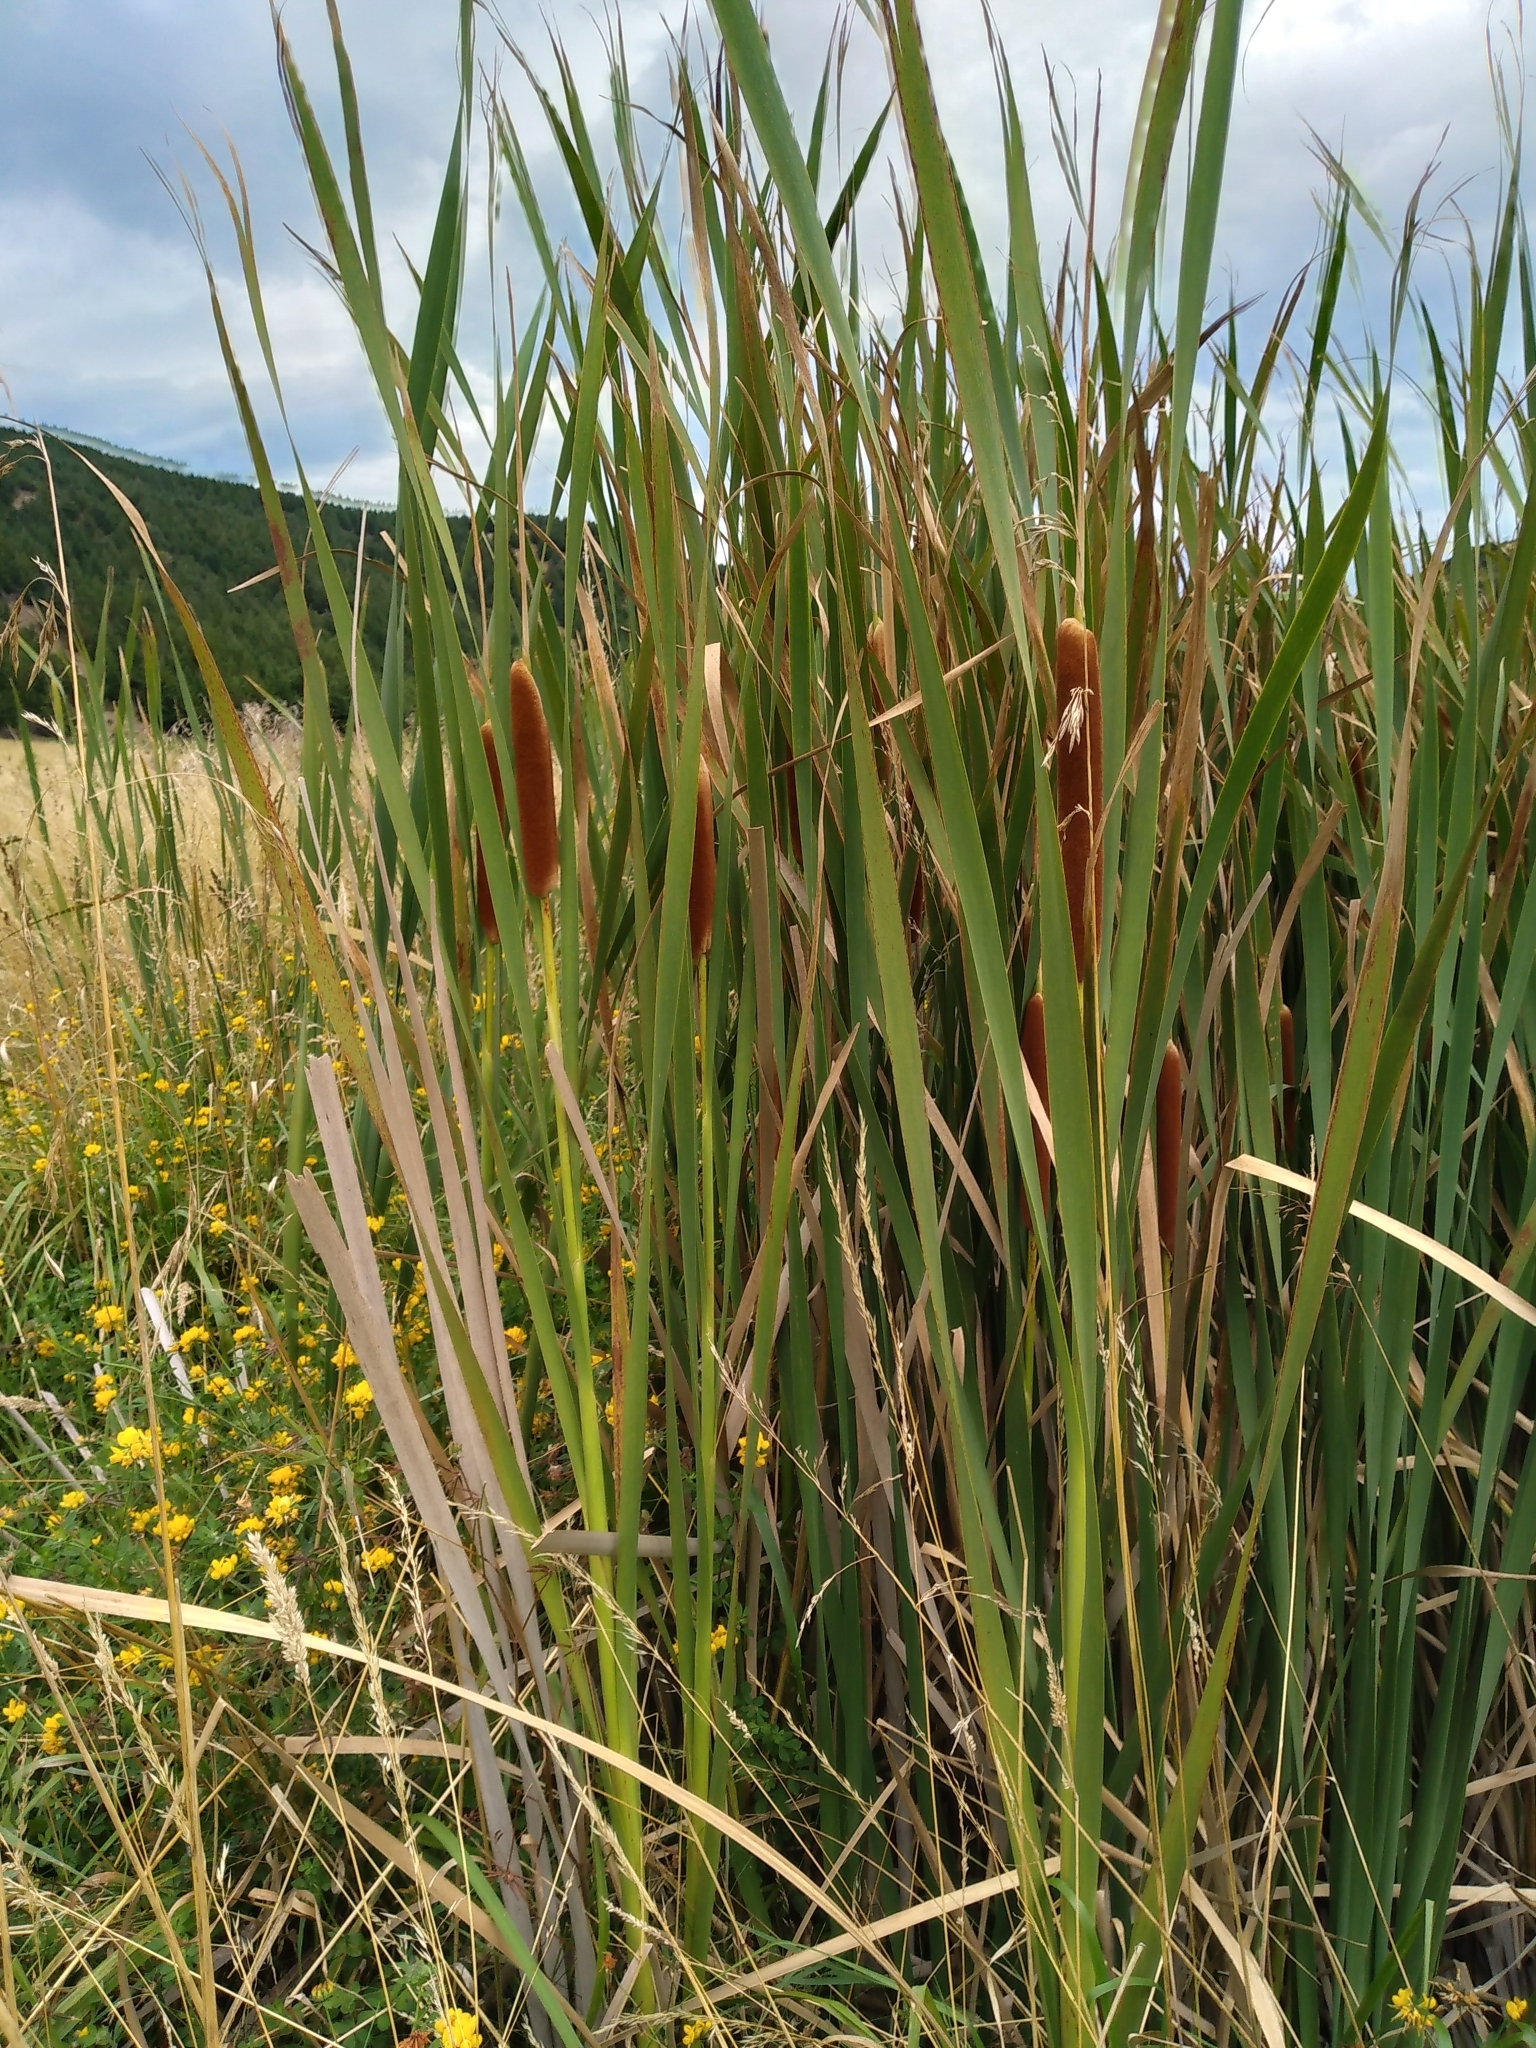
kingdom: Plantae
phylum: Tracheophyta
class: Liliopsida
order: Poales
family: Typhaceae
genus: Typha
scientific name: Typha orientalis
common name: Bullrush
